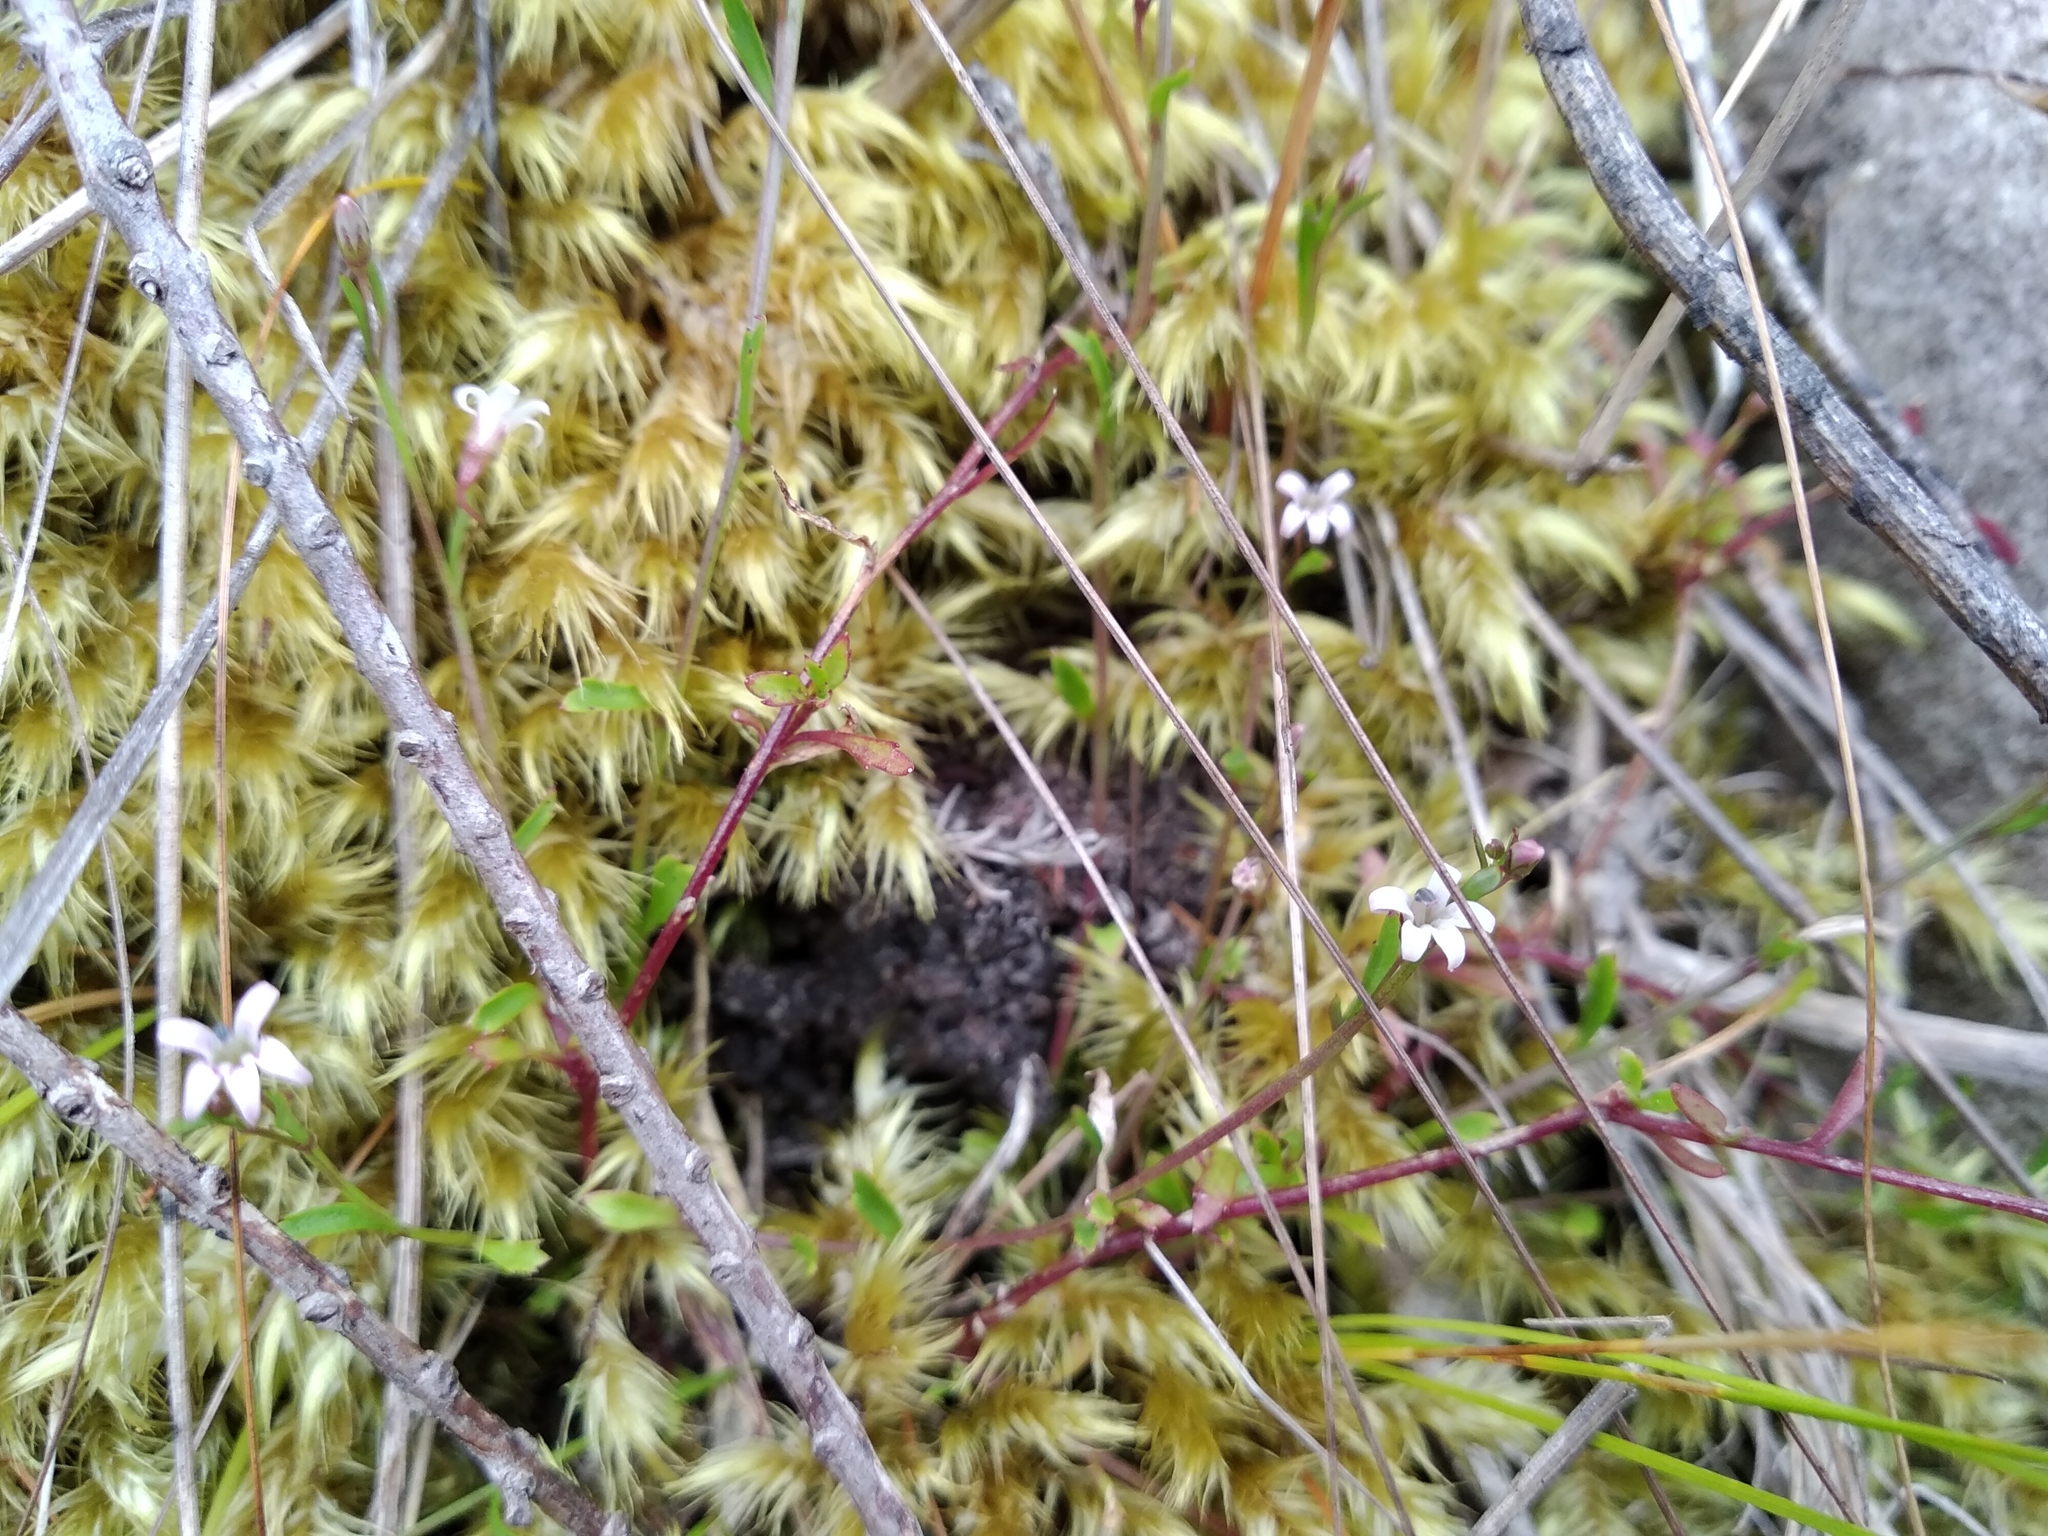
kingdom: Plantae
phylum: Tracheophyta
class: Magnoliopsida
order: Asterales
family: Campanulaceae
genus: Lobelia
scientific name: Lobelia eckloniana
